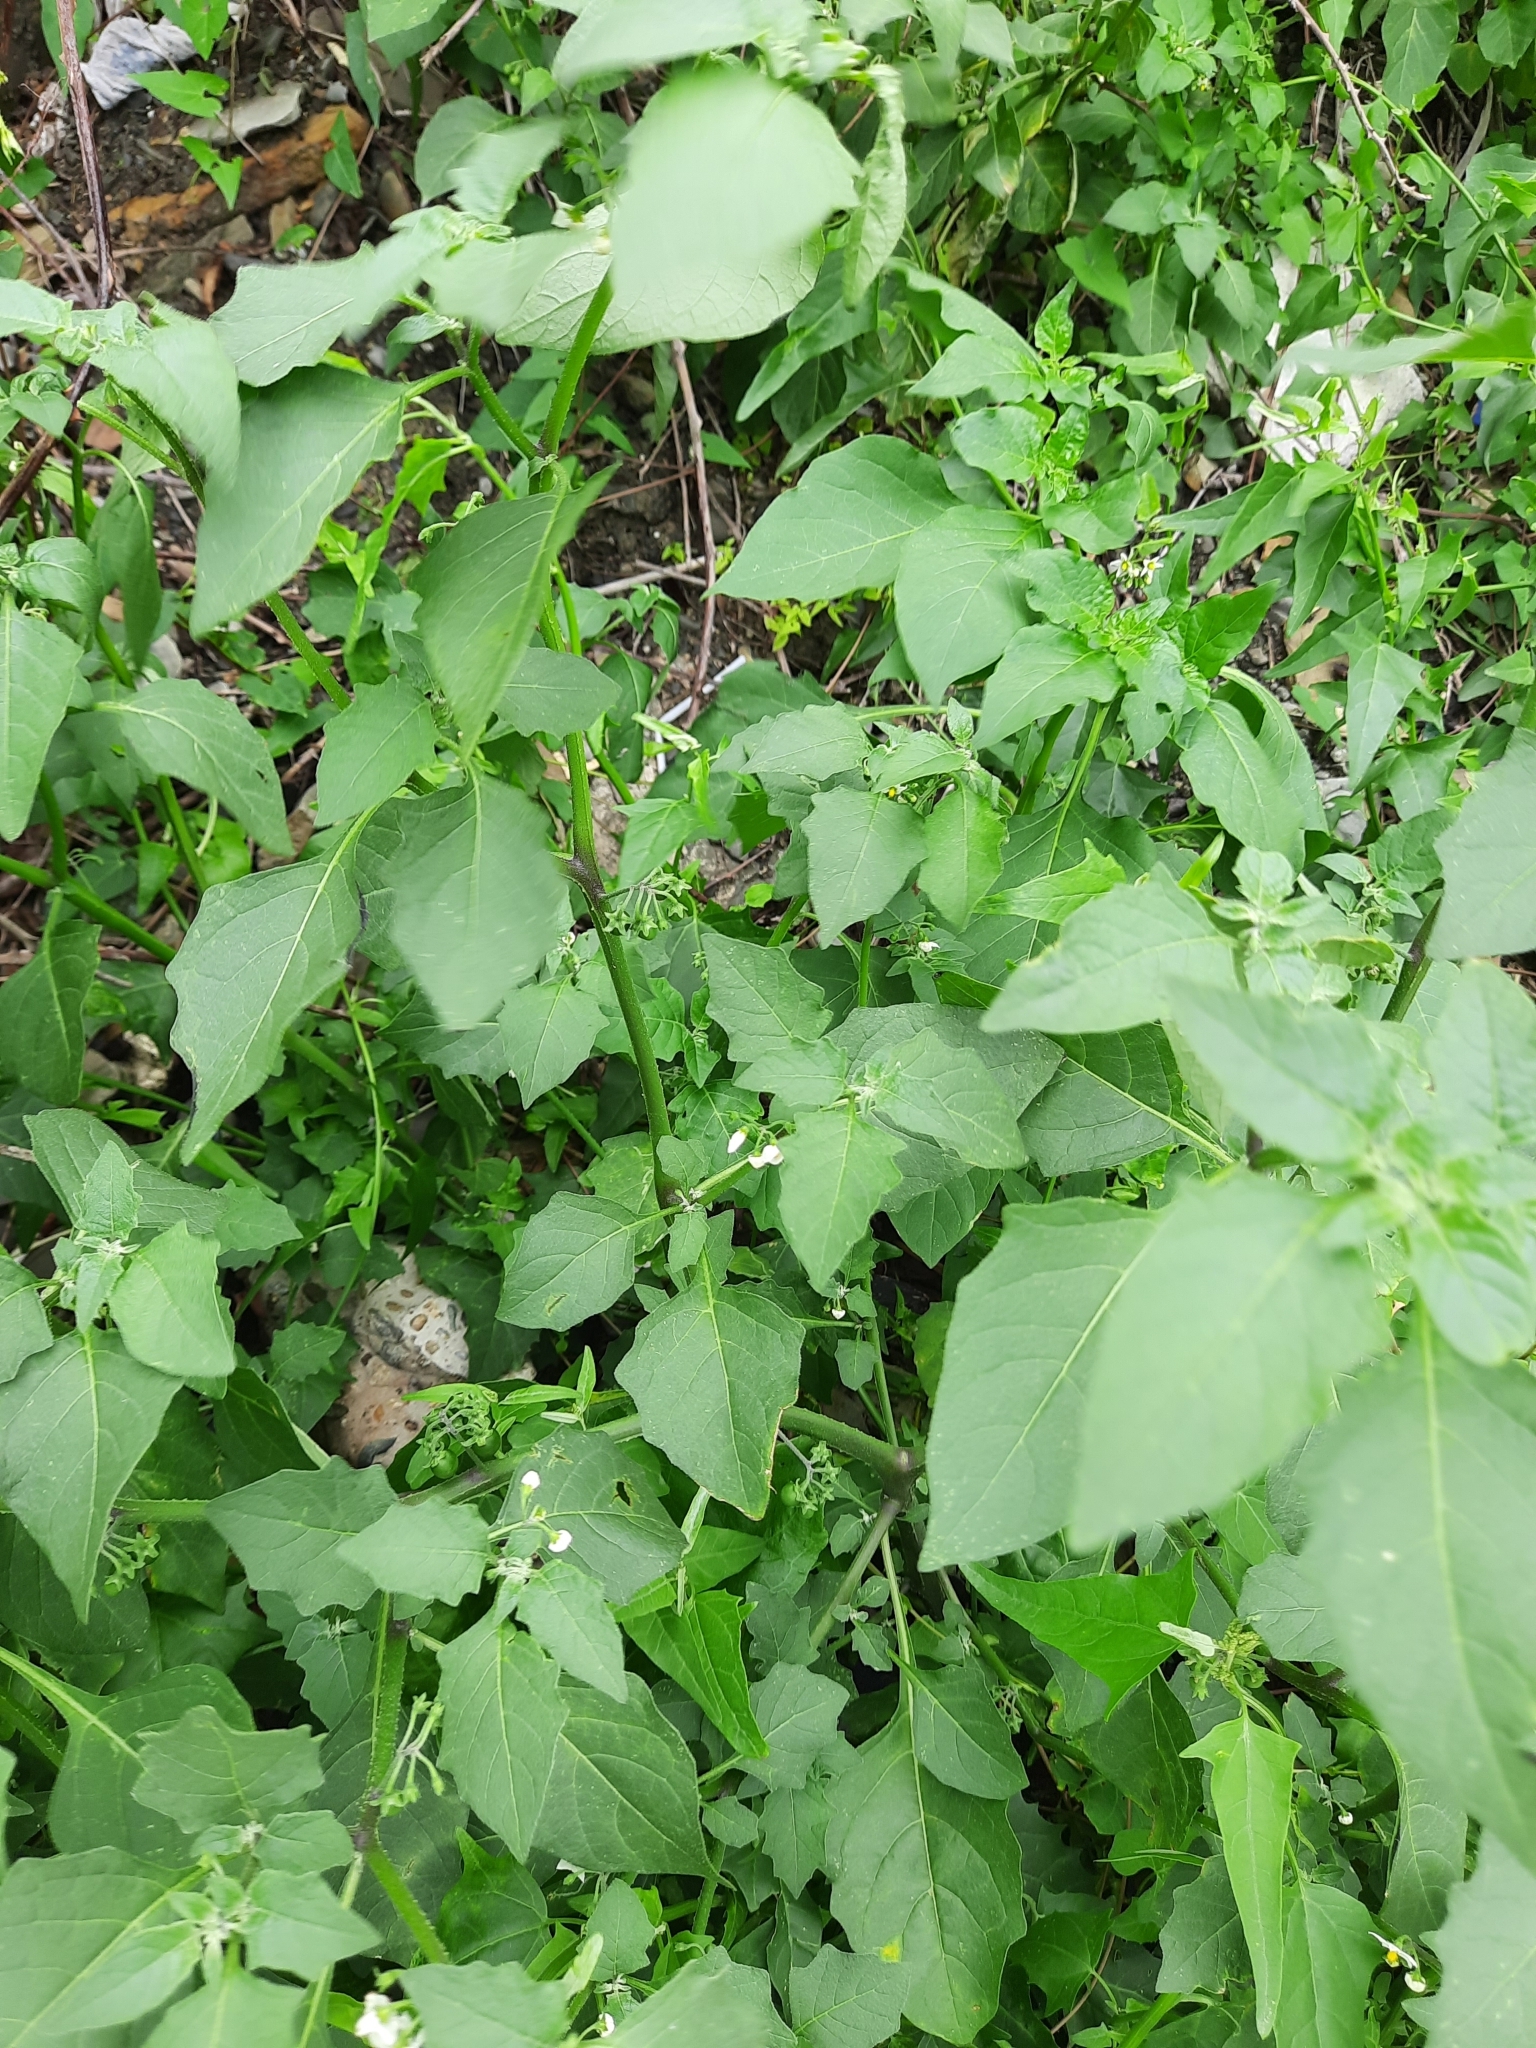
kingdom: Plantae
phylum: Tracheophyta
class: Magnoliopsida
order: Solanales
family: Solanaceae
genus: Solanum
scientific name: Solanum nigrum
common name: Black nightshade
